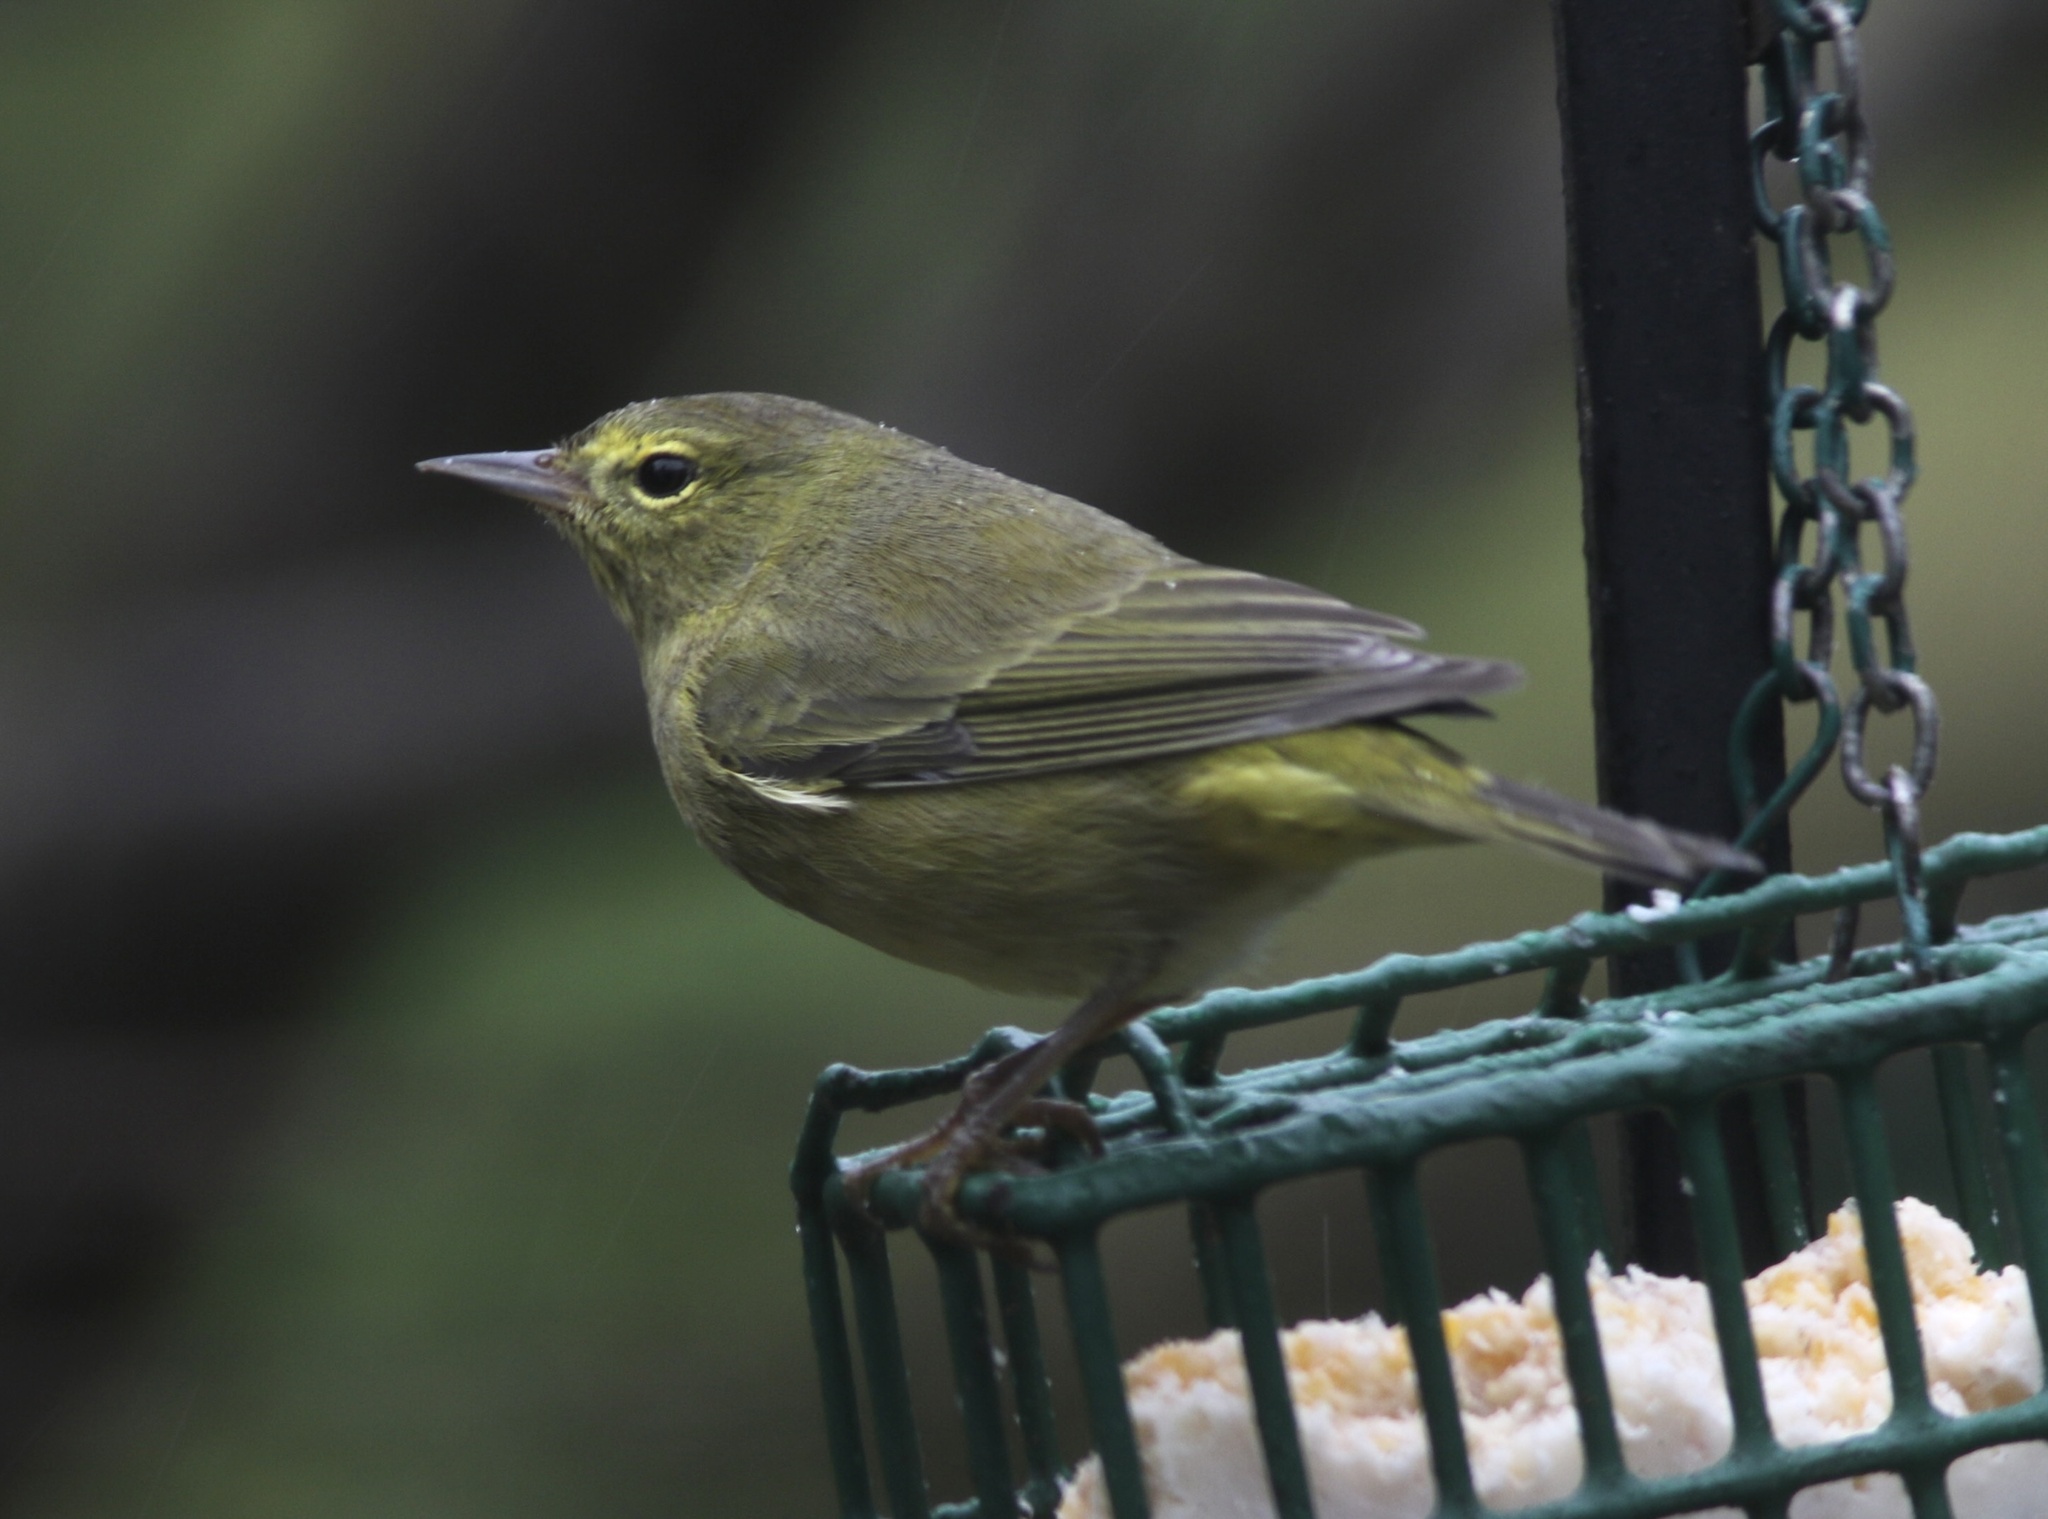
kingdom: Animalia
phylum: Chordata
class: Aves
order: Passeriformes
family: Parulidae
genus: Leiothlypis
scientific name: Leiothlypis celata
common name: Orange-crowned warbler
